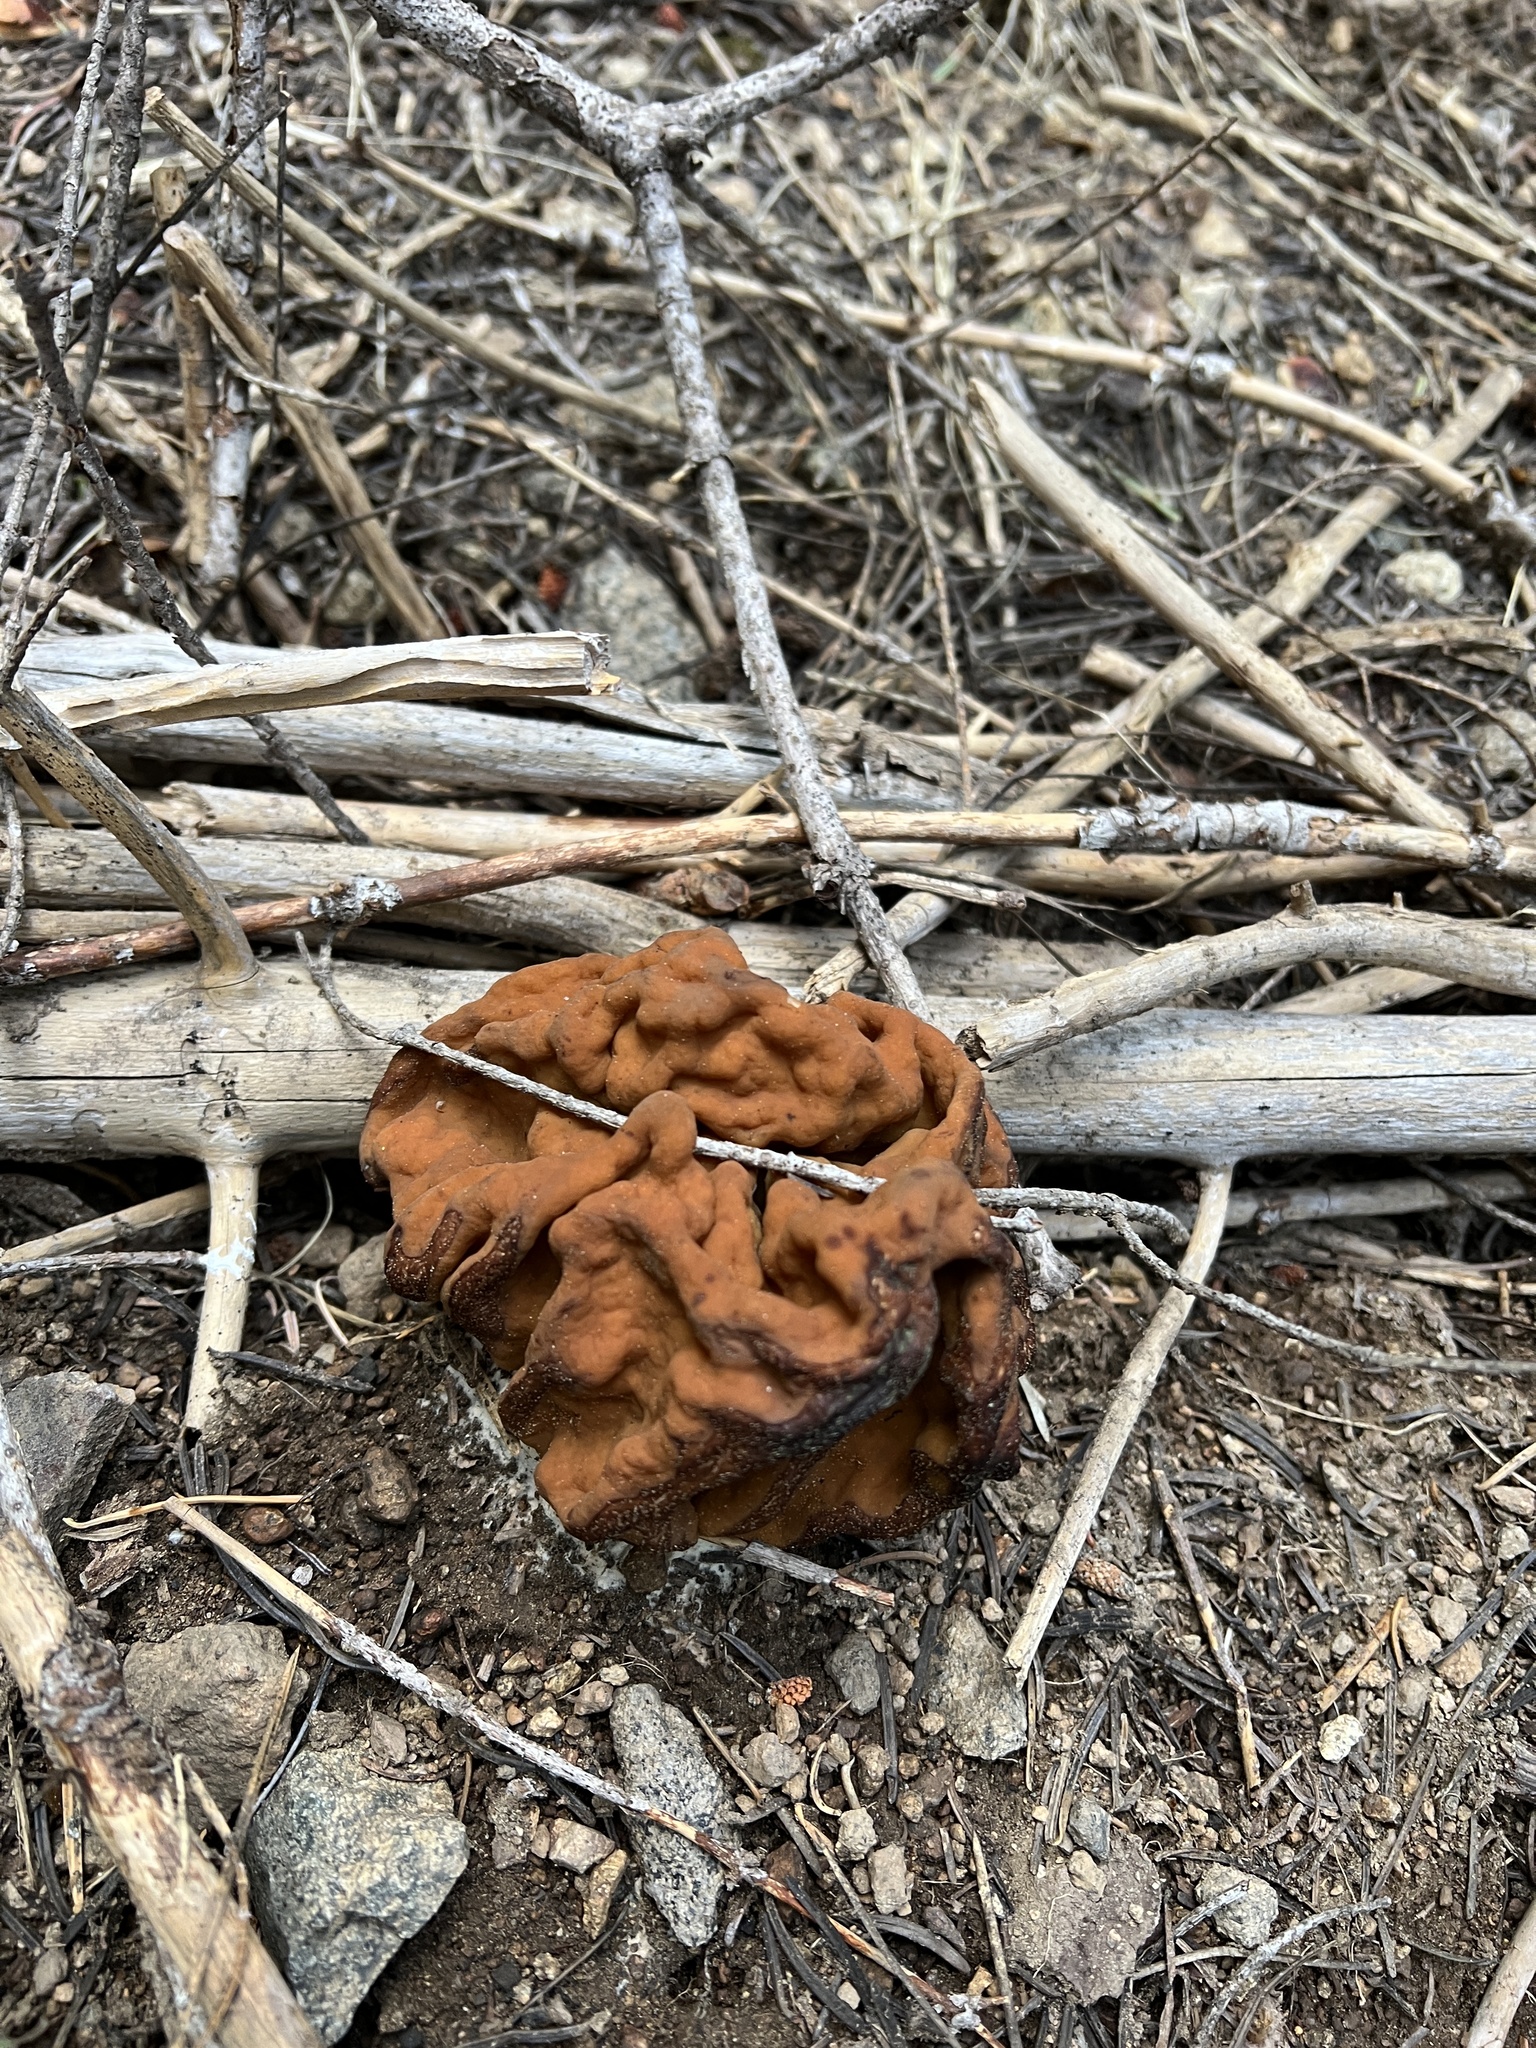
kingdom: Fungi
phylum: Ascomycota
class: Pezizomycetes
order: Pezizales
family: Discinaceae
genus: Discina
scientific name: Discina montana
